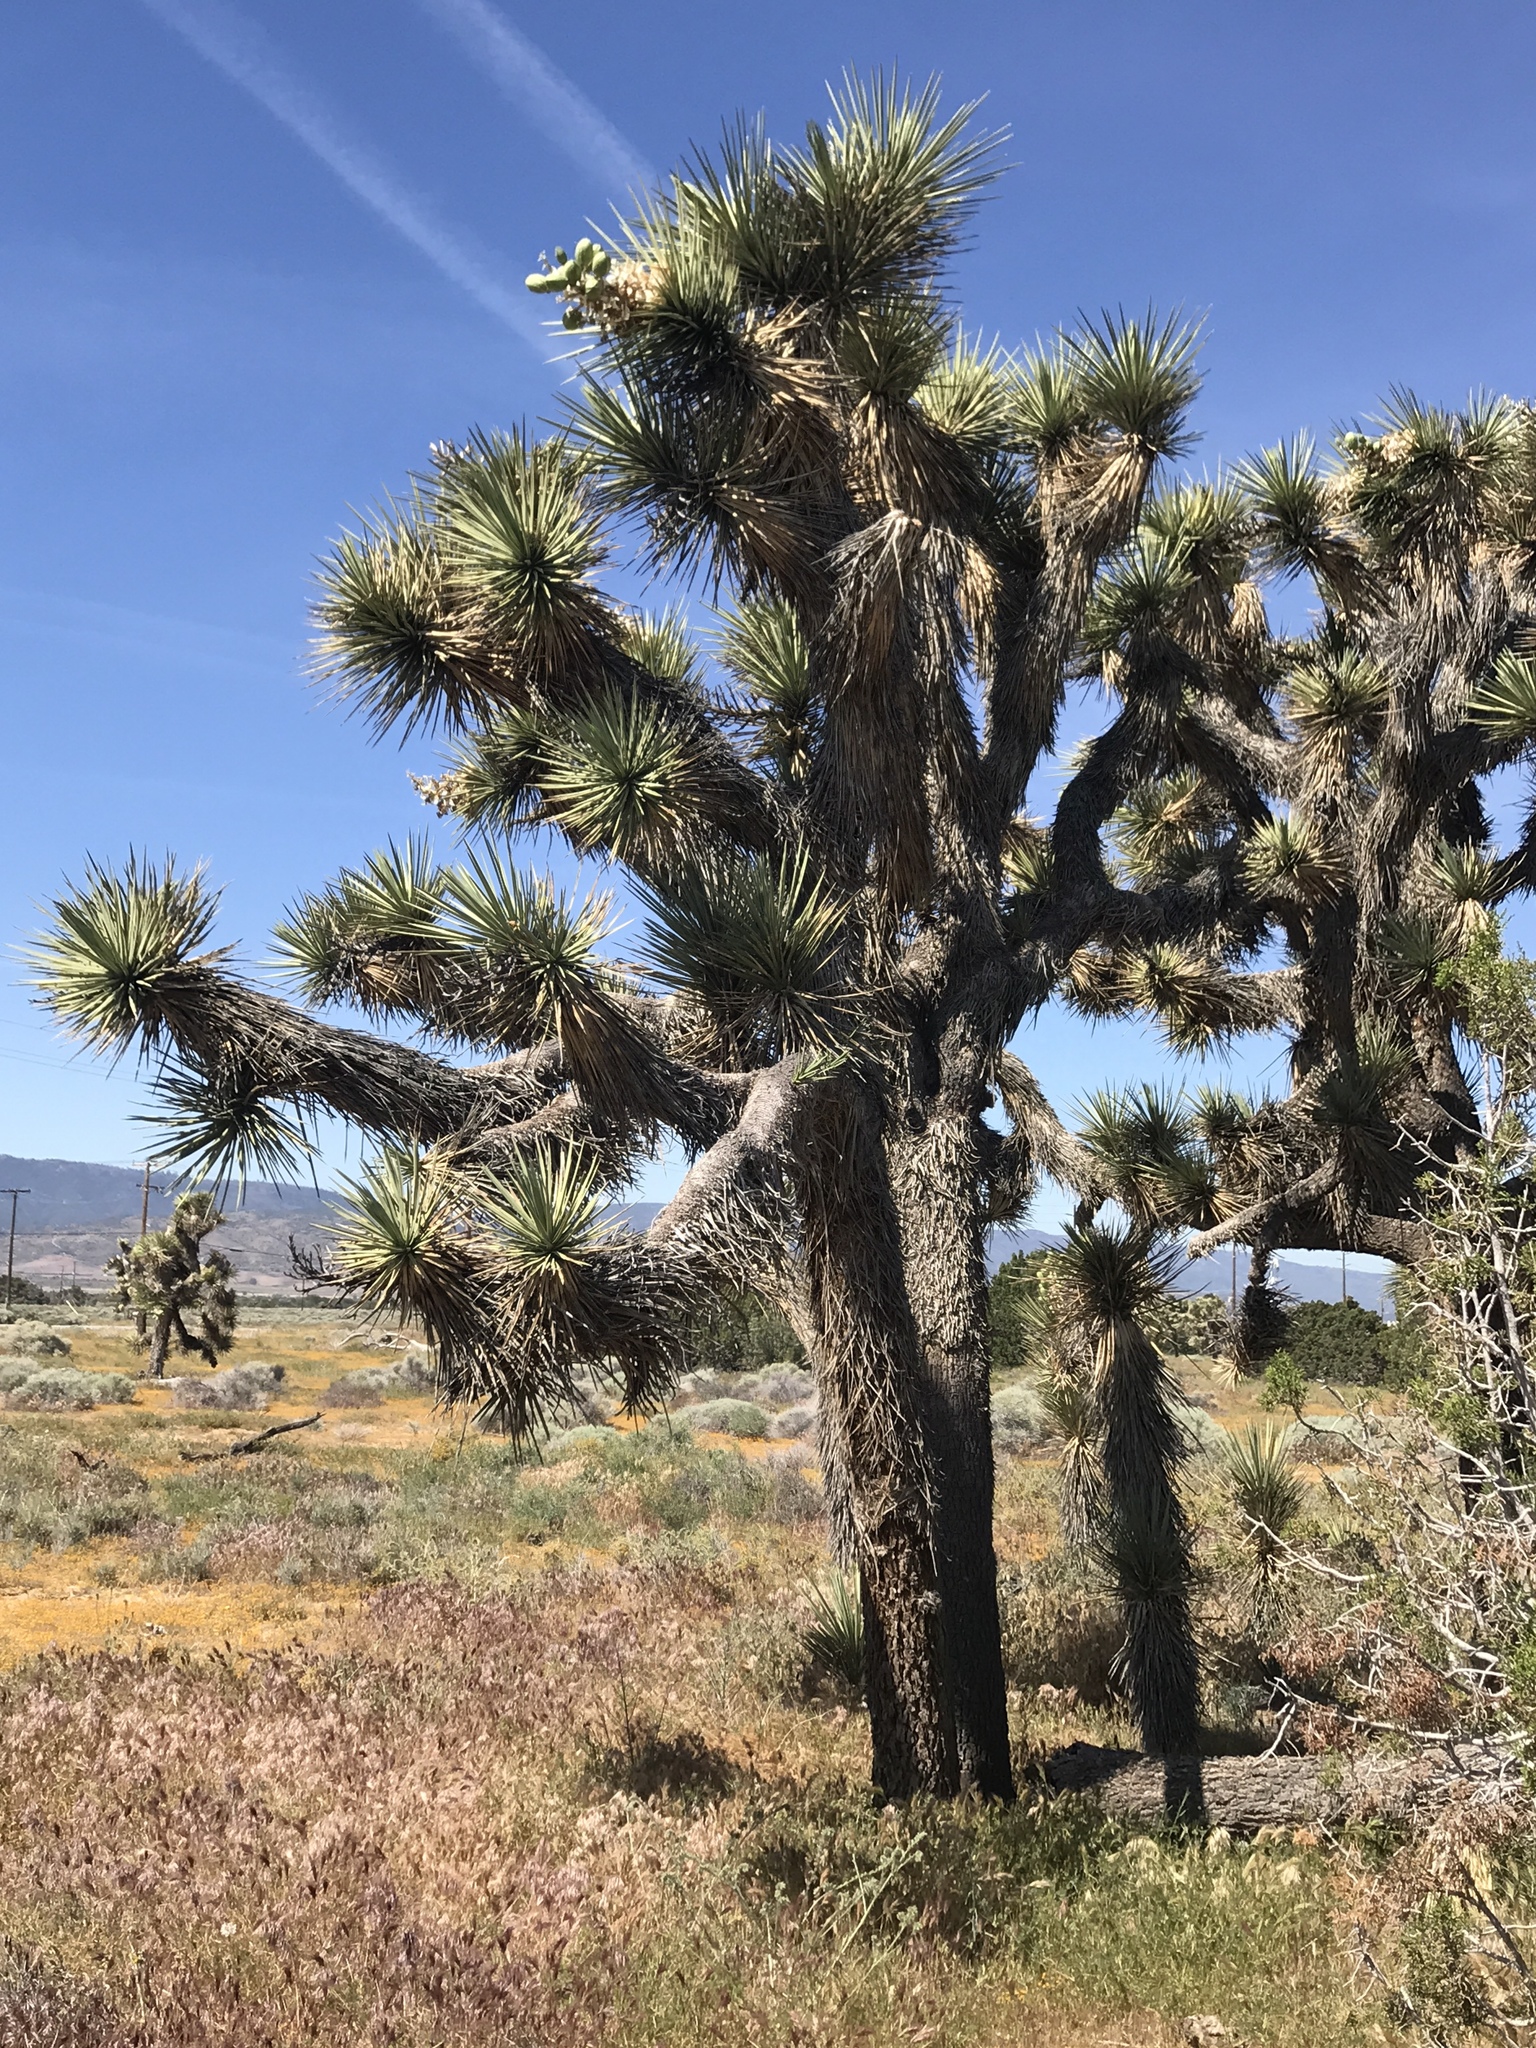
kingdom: Plantae
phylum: Tracheophyta
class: Liliopsida
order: Asparagales
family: Asparagaceae
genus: Yucca
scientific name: Yucca brevifolia
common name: Joshua tree
